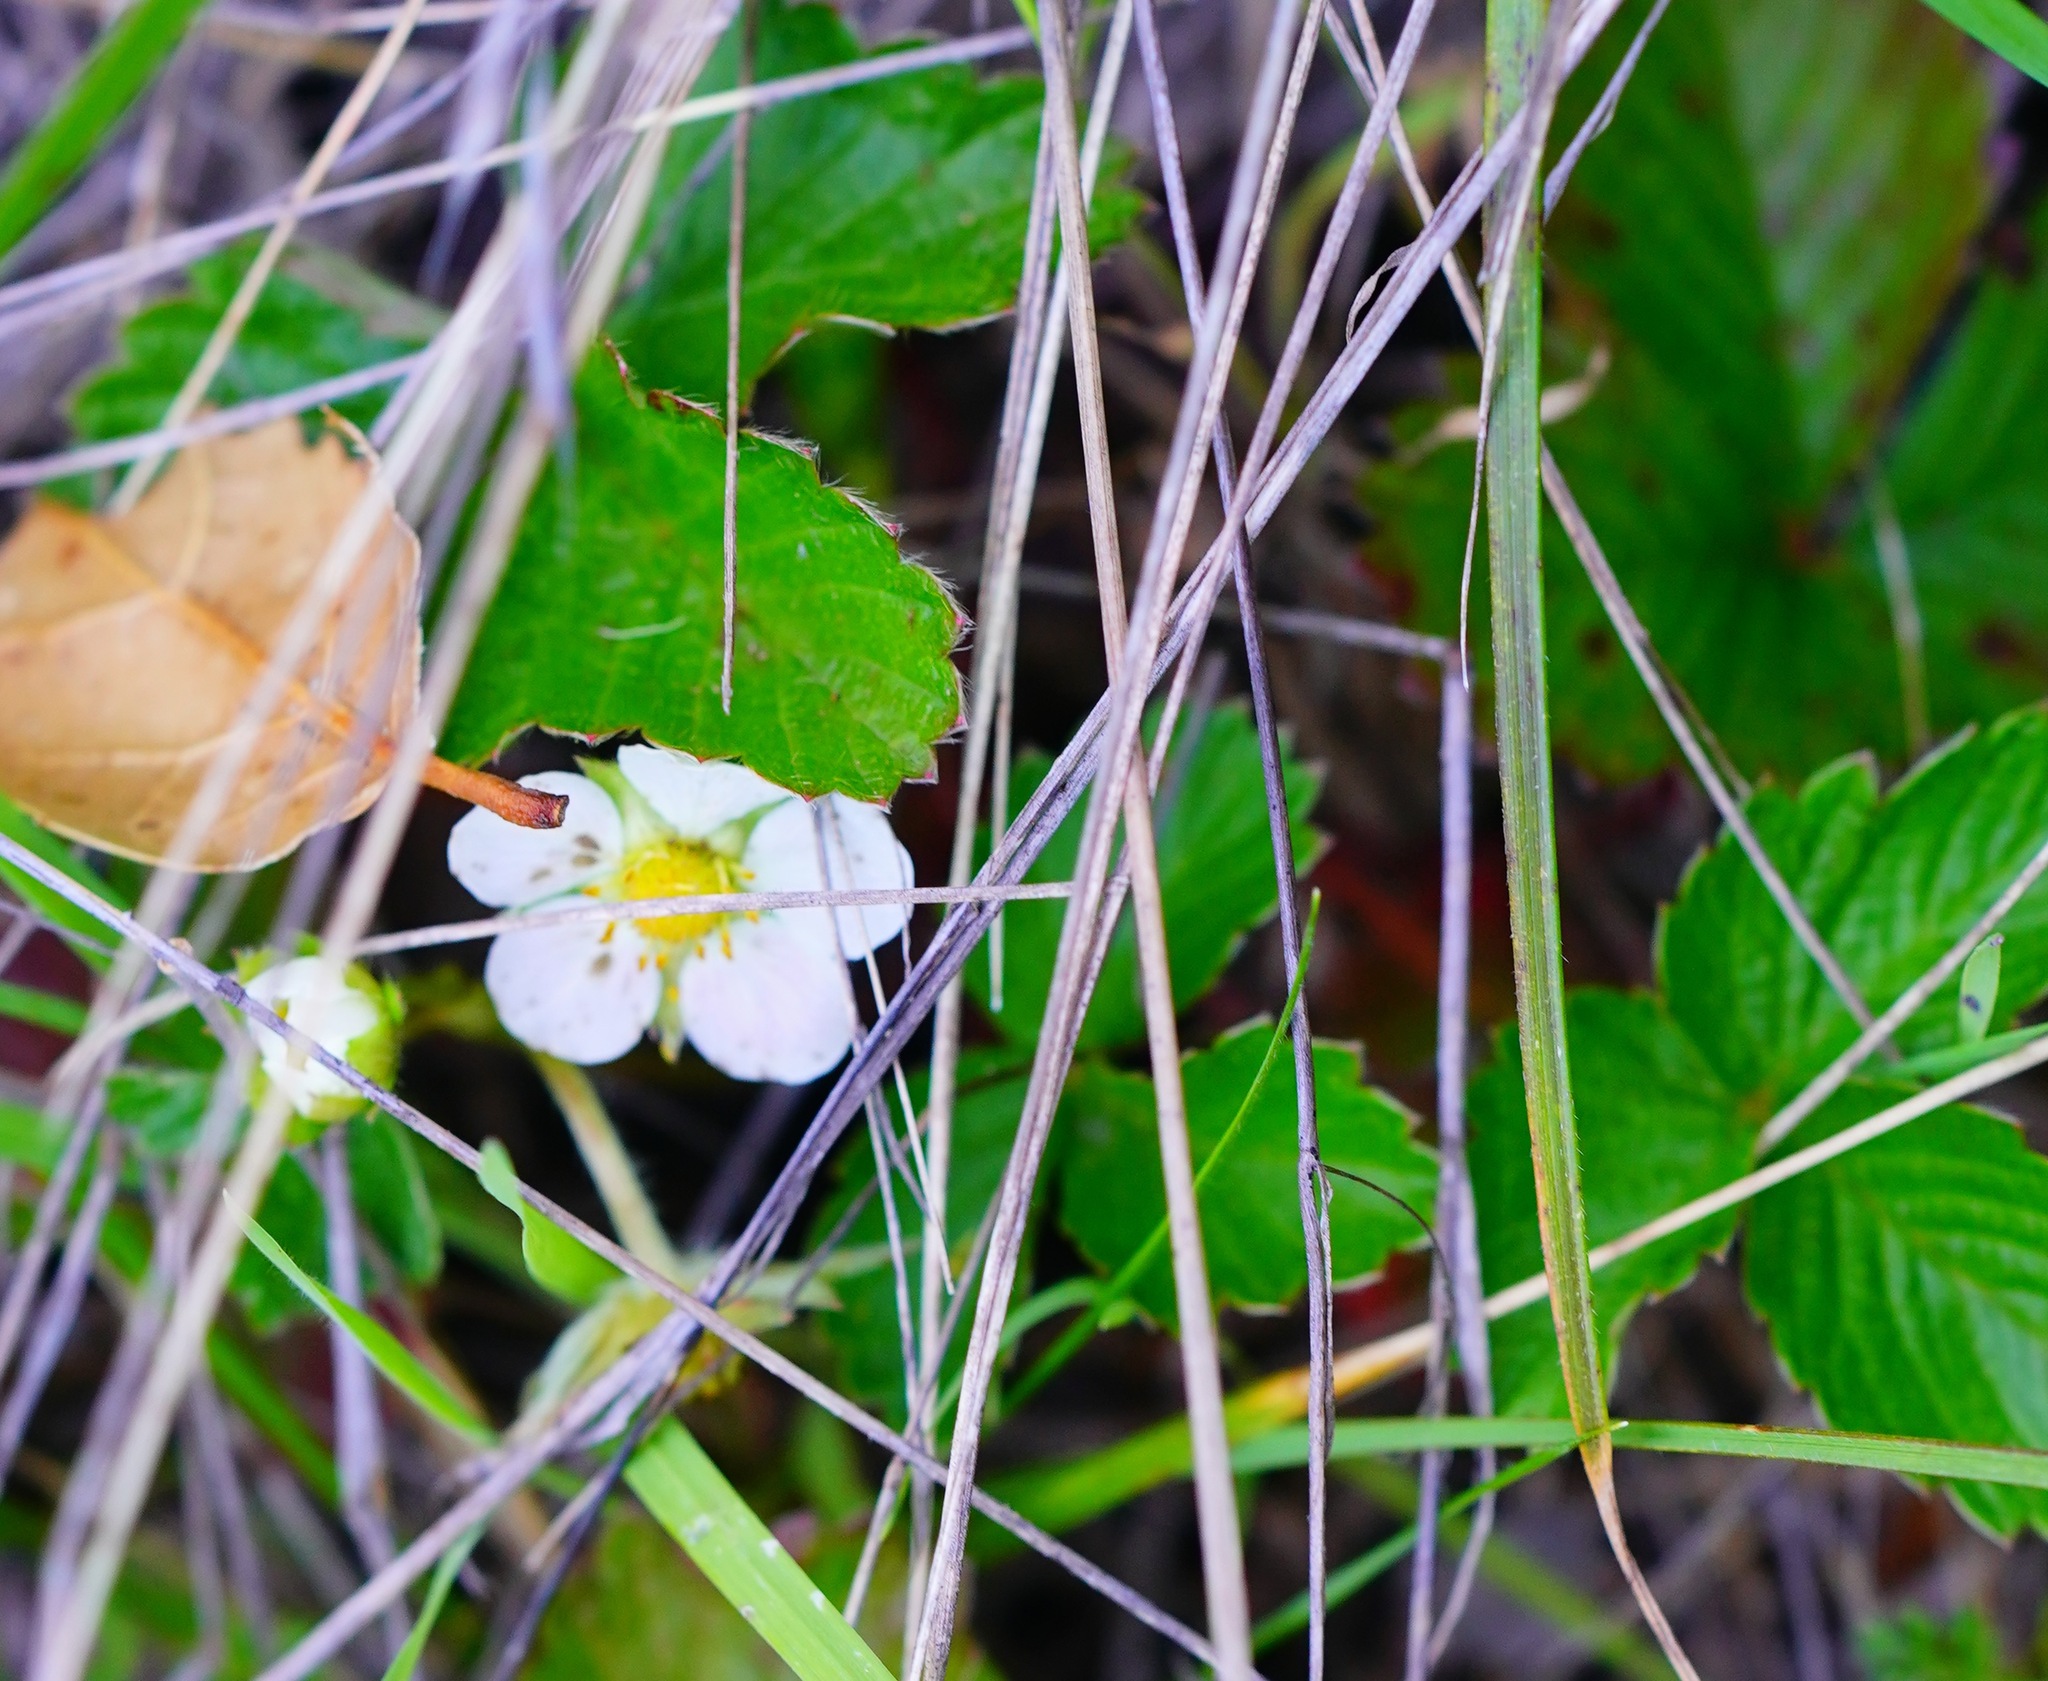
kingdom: Plantae
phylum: Tracheophyta
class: Magnoliopsida
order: Rosales
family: Rosaceae
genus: Fragaria
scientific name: Fragaria vesca
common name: Wild strawberry
